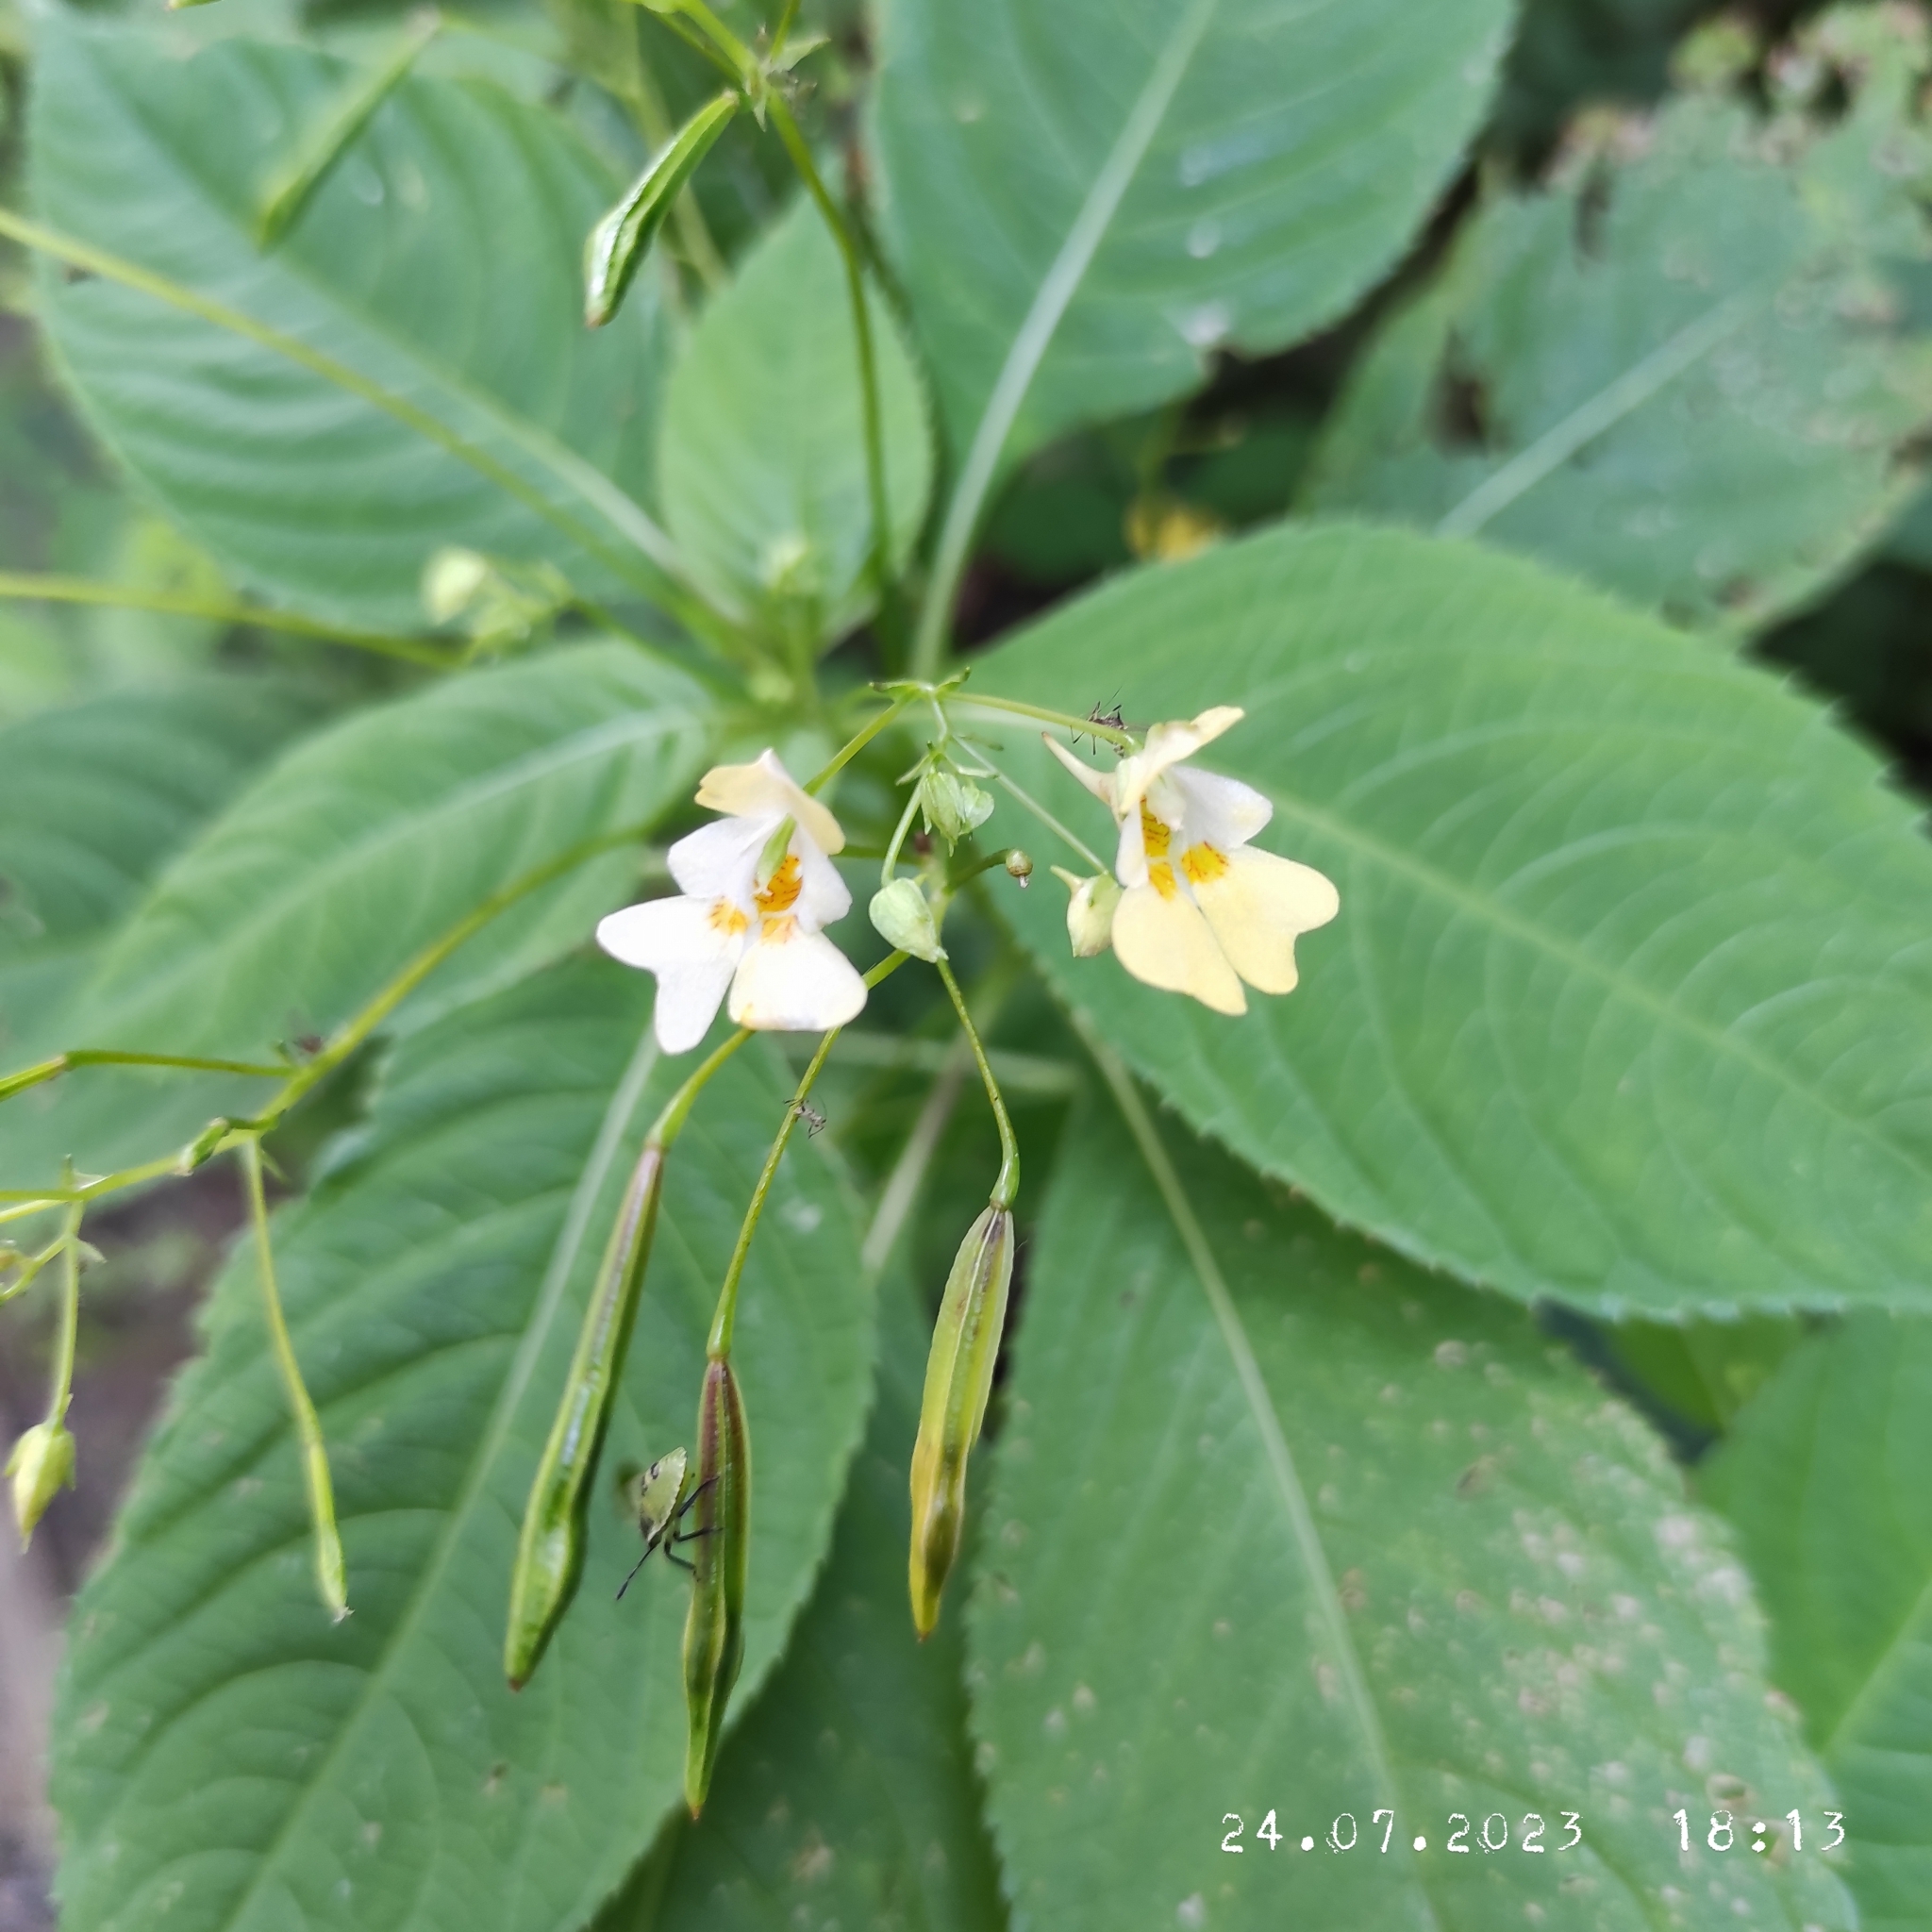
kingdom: Plantae
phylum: Tracheophyta
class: Magnoliopsida
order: Ericales
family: Balsaminaceae
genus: Impatiens
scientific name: Impatiens parviflora
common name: Small balsam
